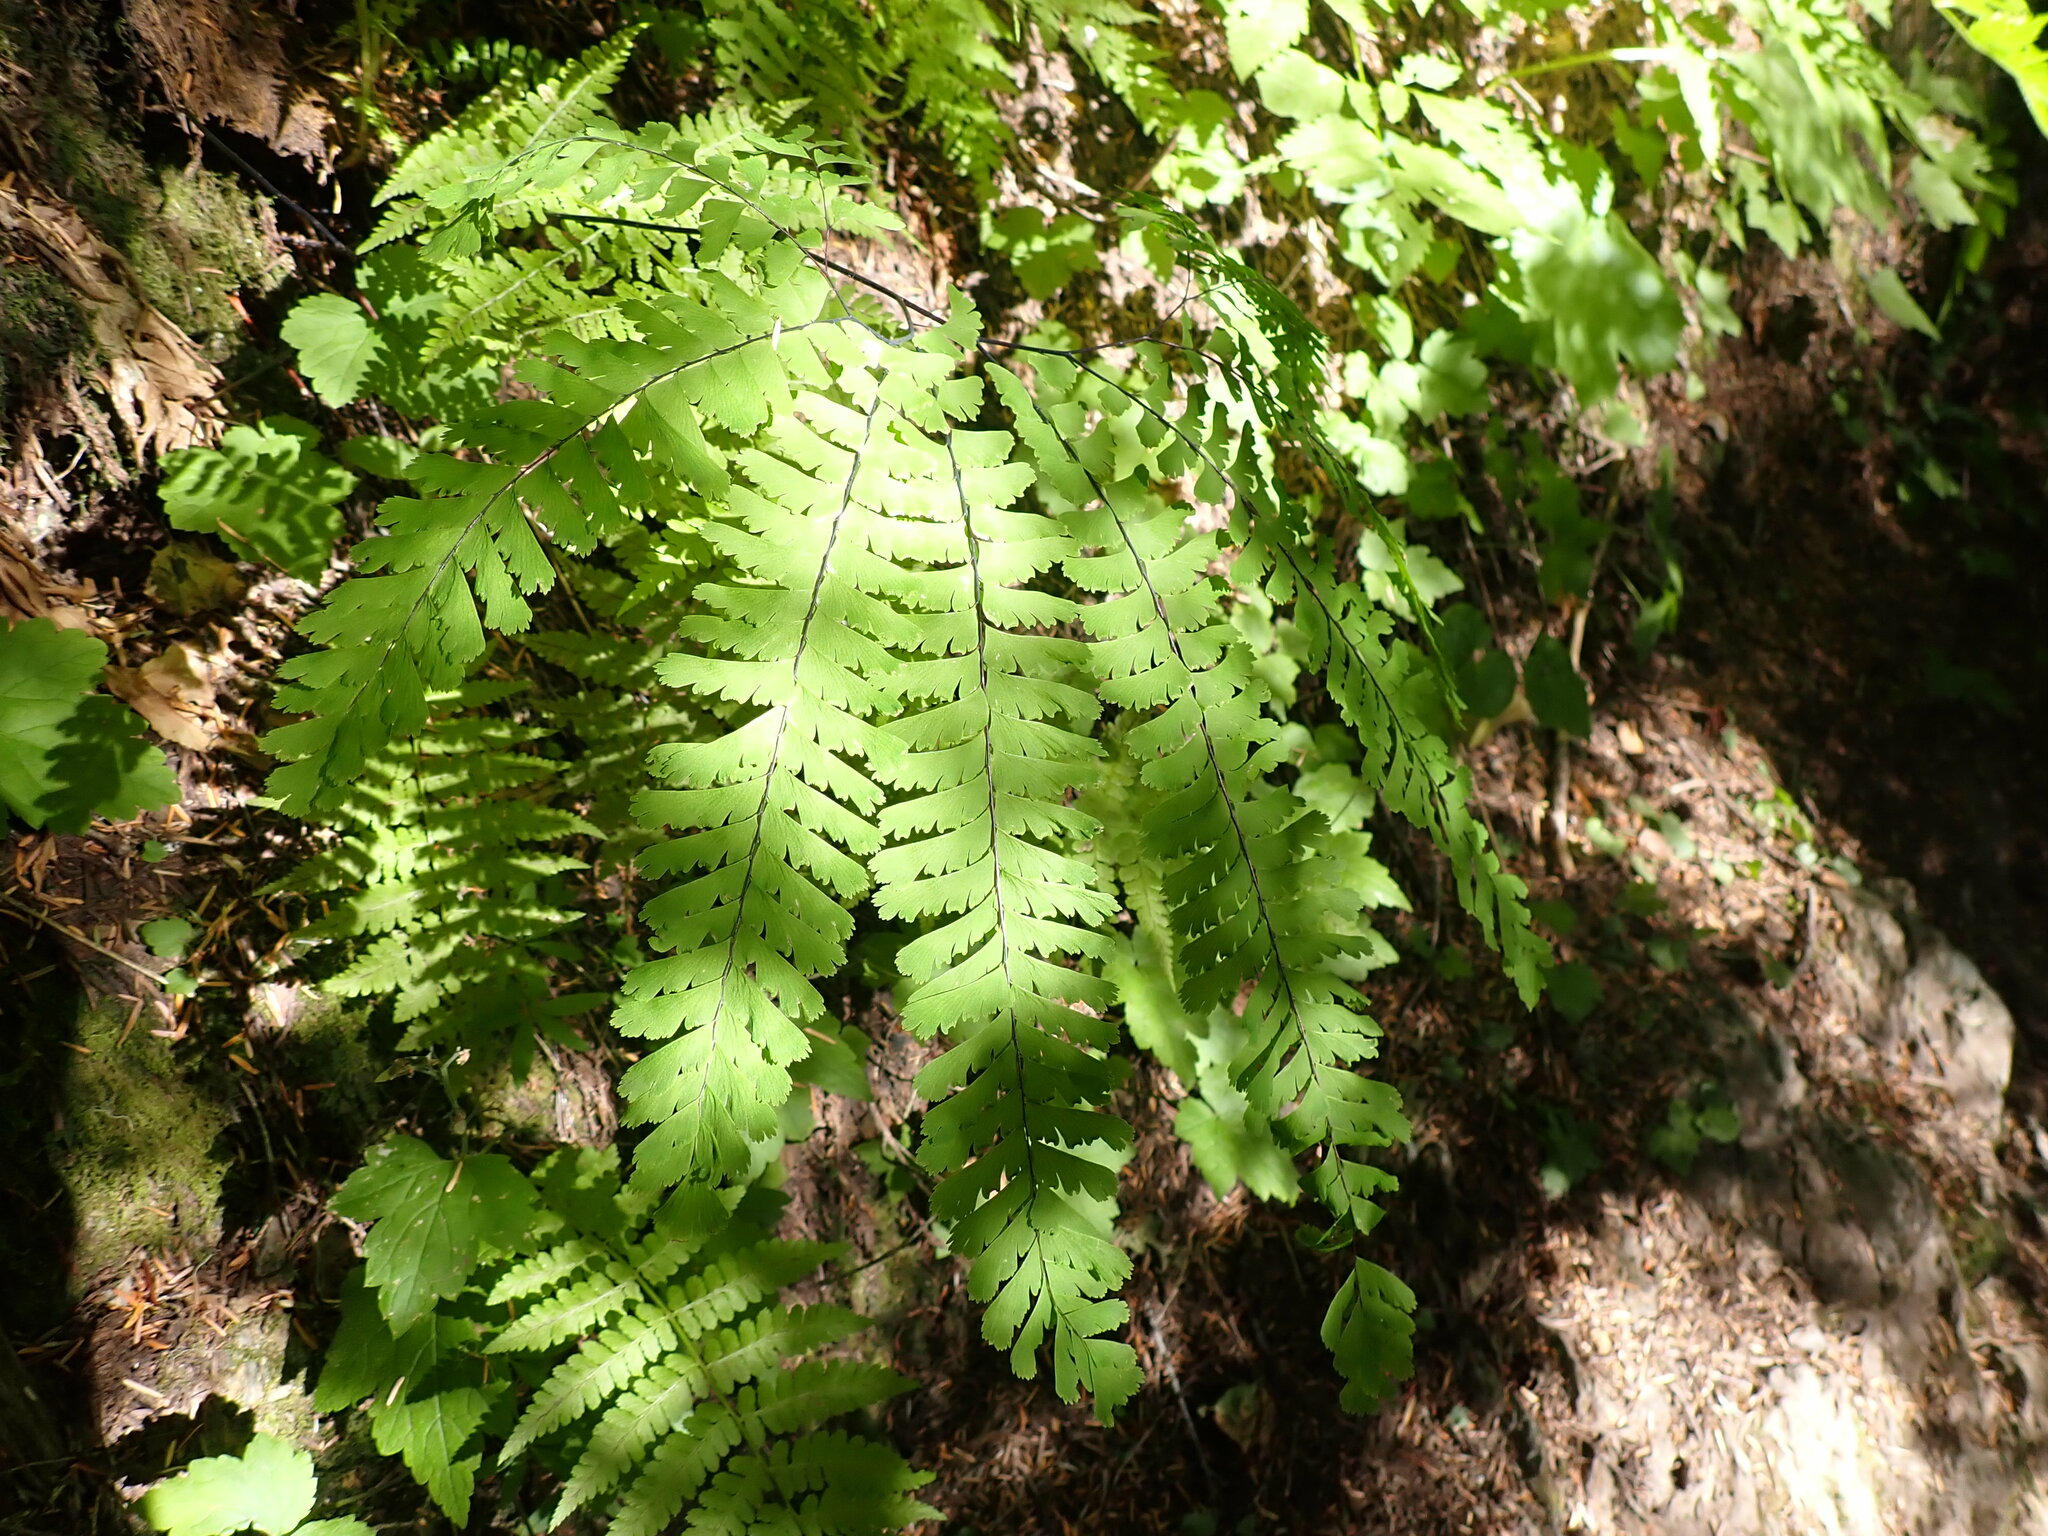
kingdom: Plantae
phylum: Tracheophyta
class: Polypodiopsida
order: Polypodiales
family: Pteridaceae
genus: Adiantum
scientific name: Adiantum aleuticum
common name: Aleutian maidenhair fern
